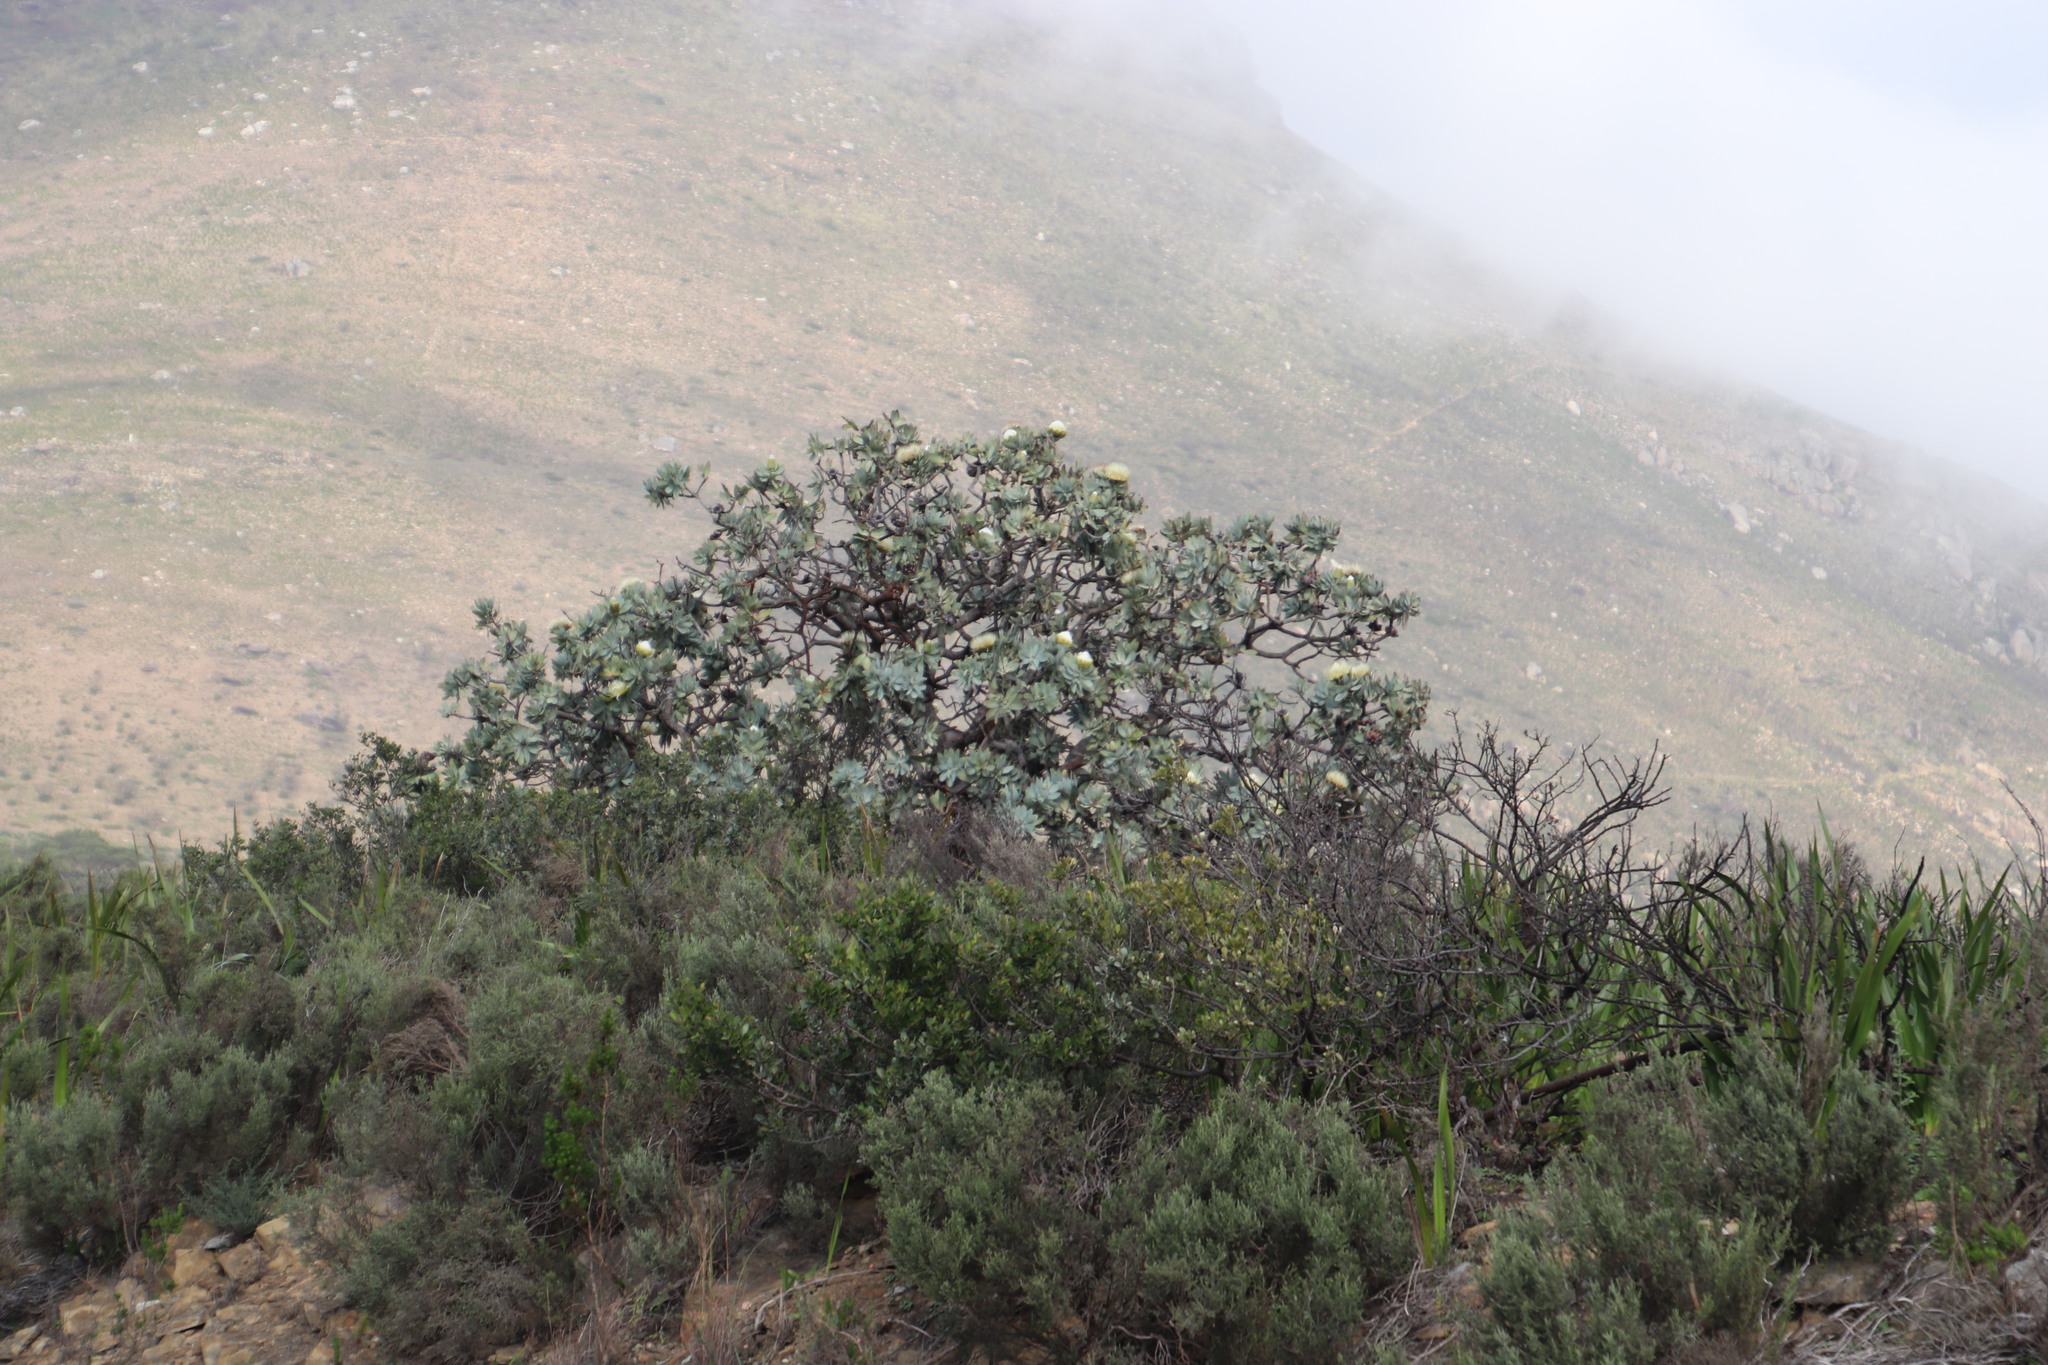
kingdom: Plantae
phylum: Tracheophyta
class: Magnoliopsida
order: Proteales
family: Proteaceae
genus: Protea
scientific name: Protea nitida
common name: Tree protea
